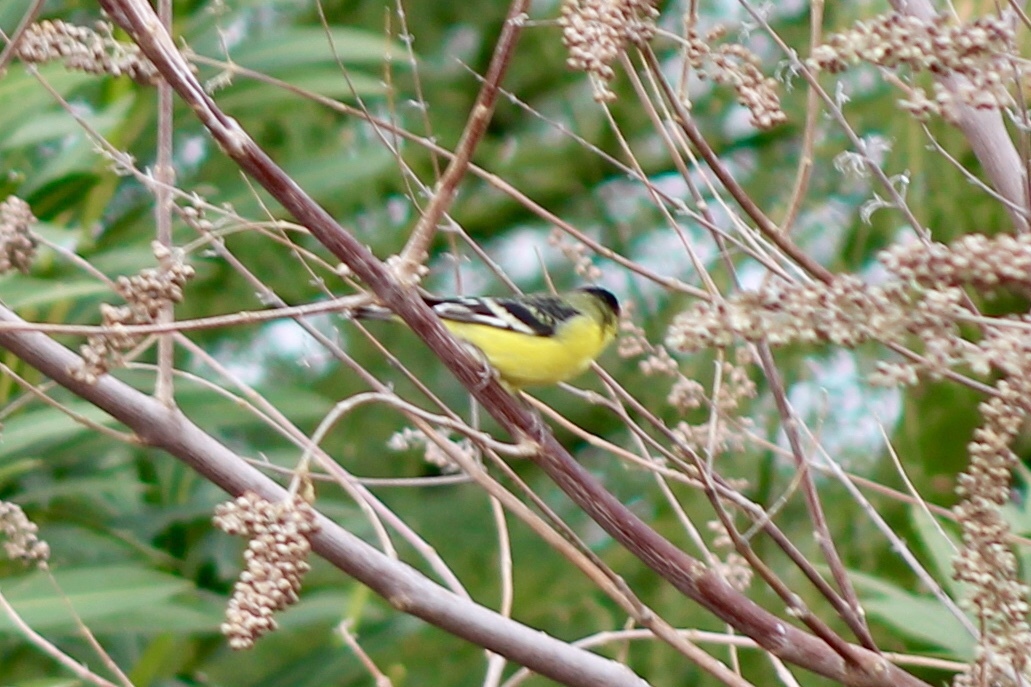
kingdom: Animalia
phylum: Chordata
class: Aves
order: Passeriformes
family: Fringillidae
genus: Spinus
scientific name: Spinus psaltria
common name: Lesser goldfinch
